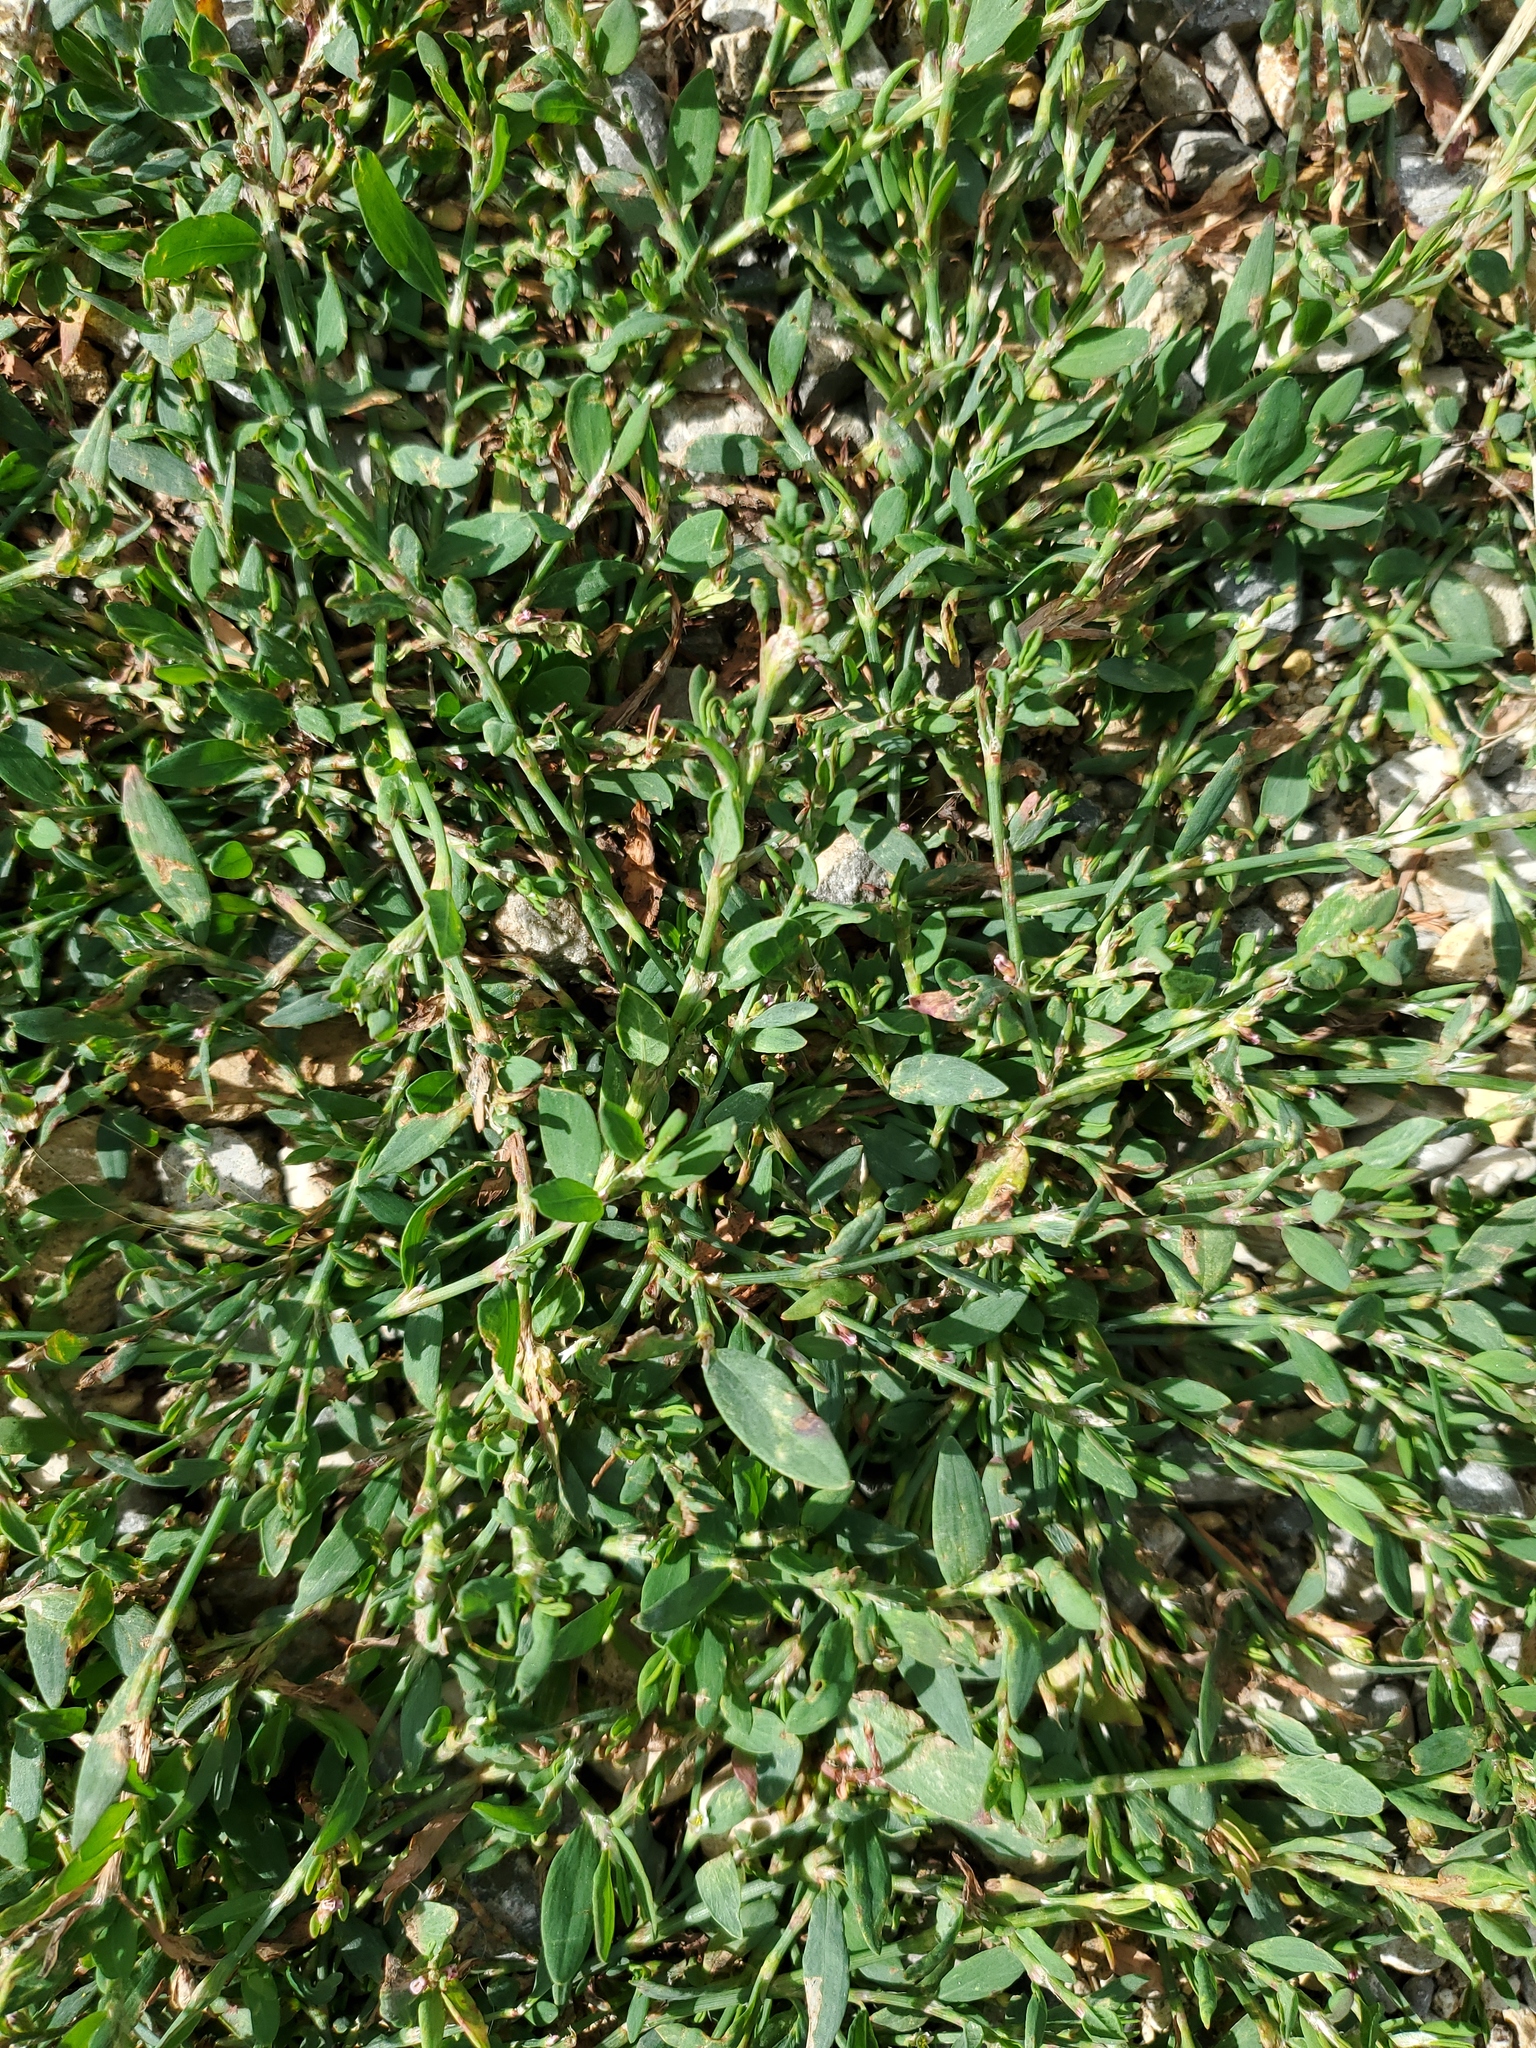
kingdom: Plantae
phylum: Tracheophyta
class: Magnoliopsida
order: Caryophyllales
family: Polygonaceae
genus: Polygonum
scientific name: Polygonum aviculare
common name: Prostrate knotweed
